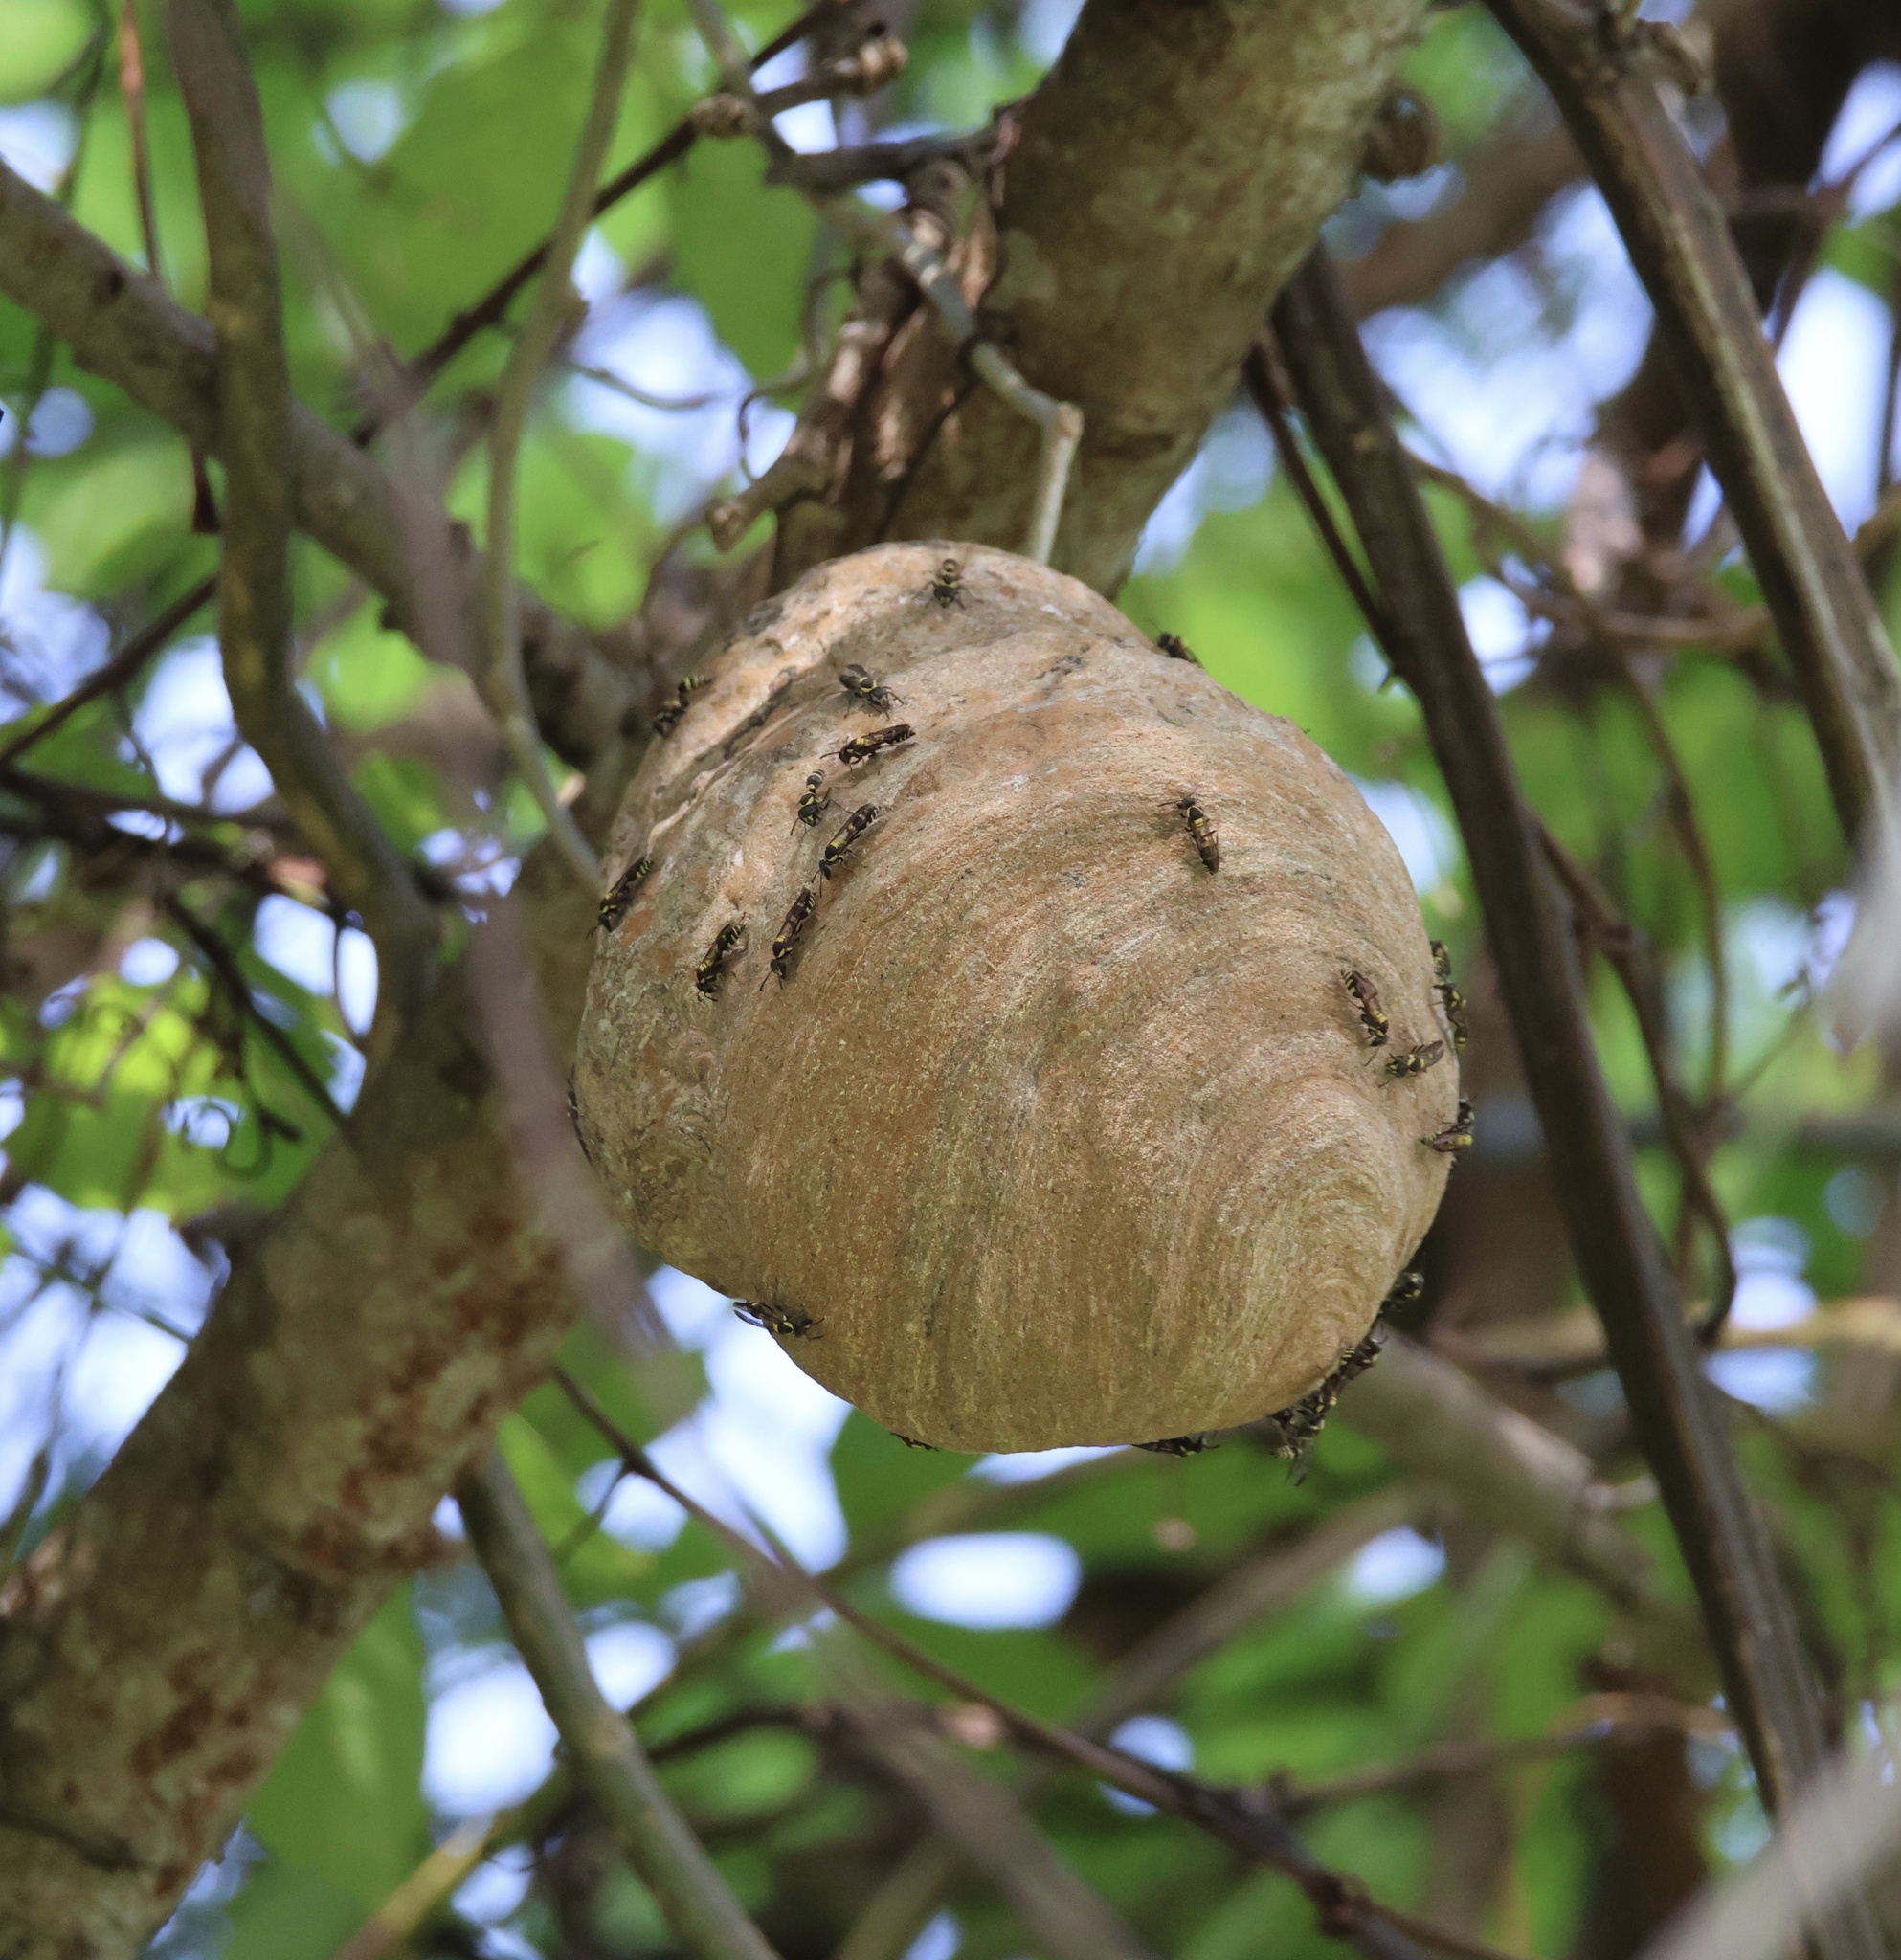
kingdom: Animalia
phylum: Arthropoda
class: Insecta
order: Hymenoptera
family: Eumenidae
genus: Polybia
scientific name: Polybia occidentalis
